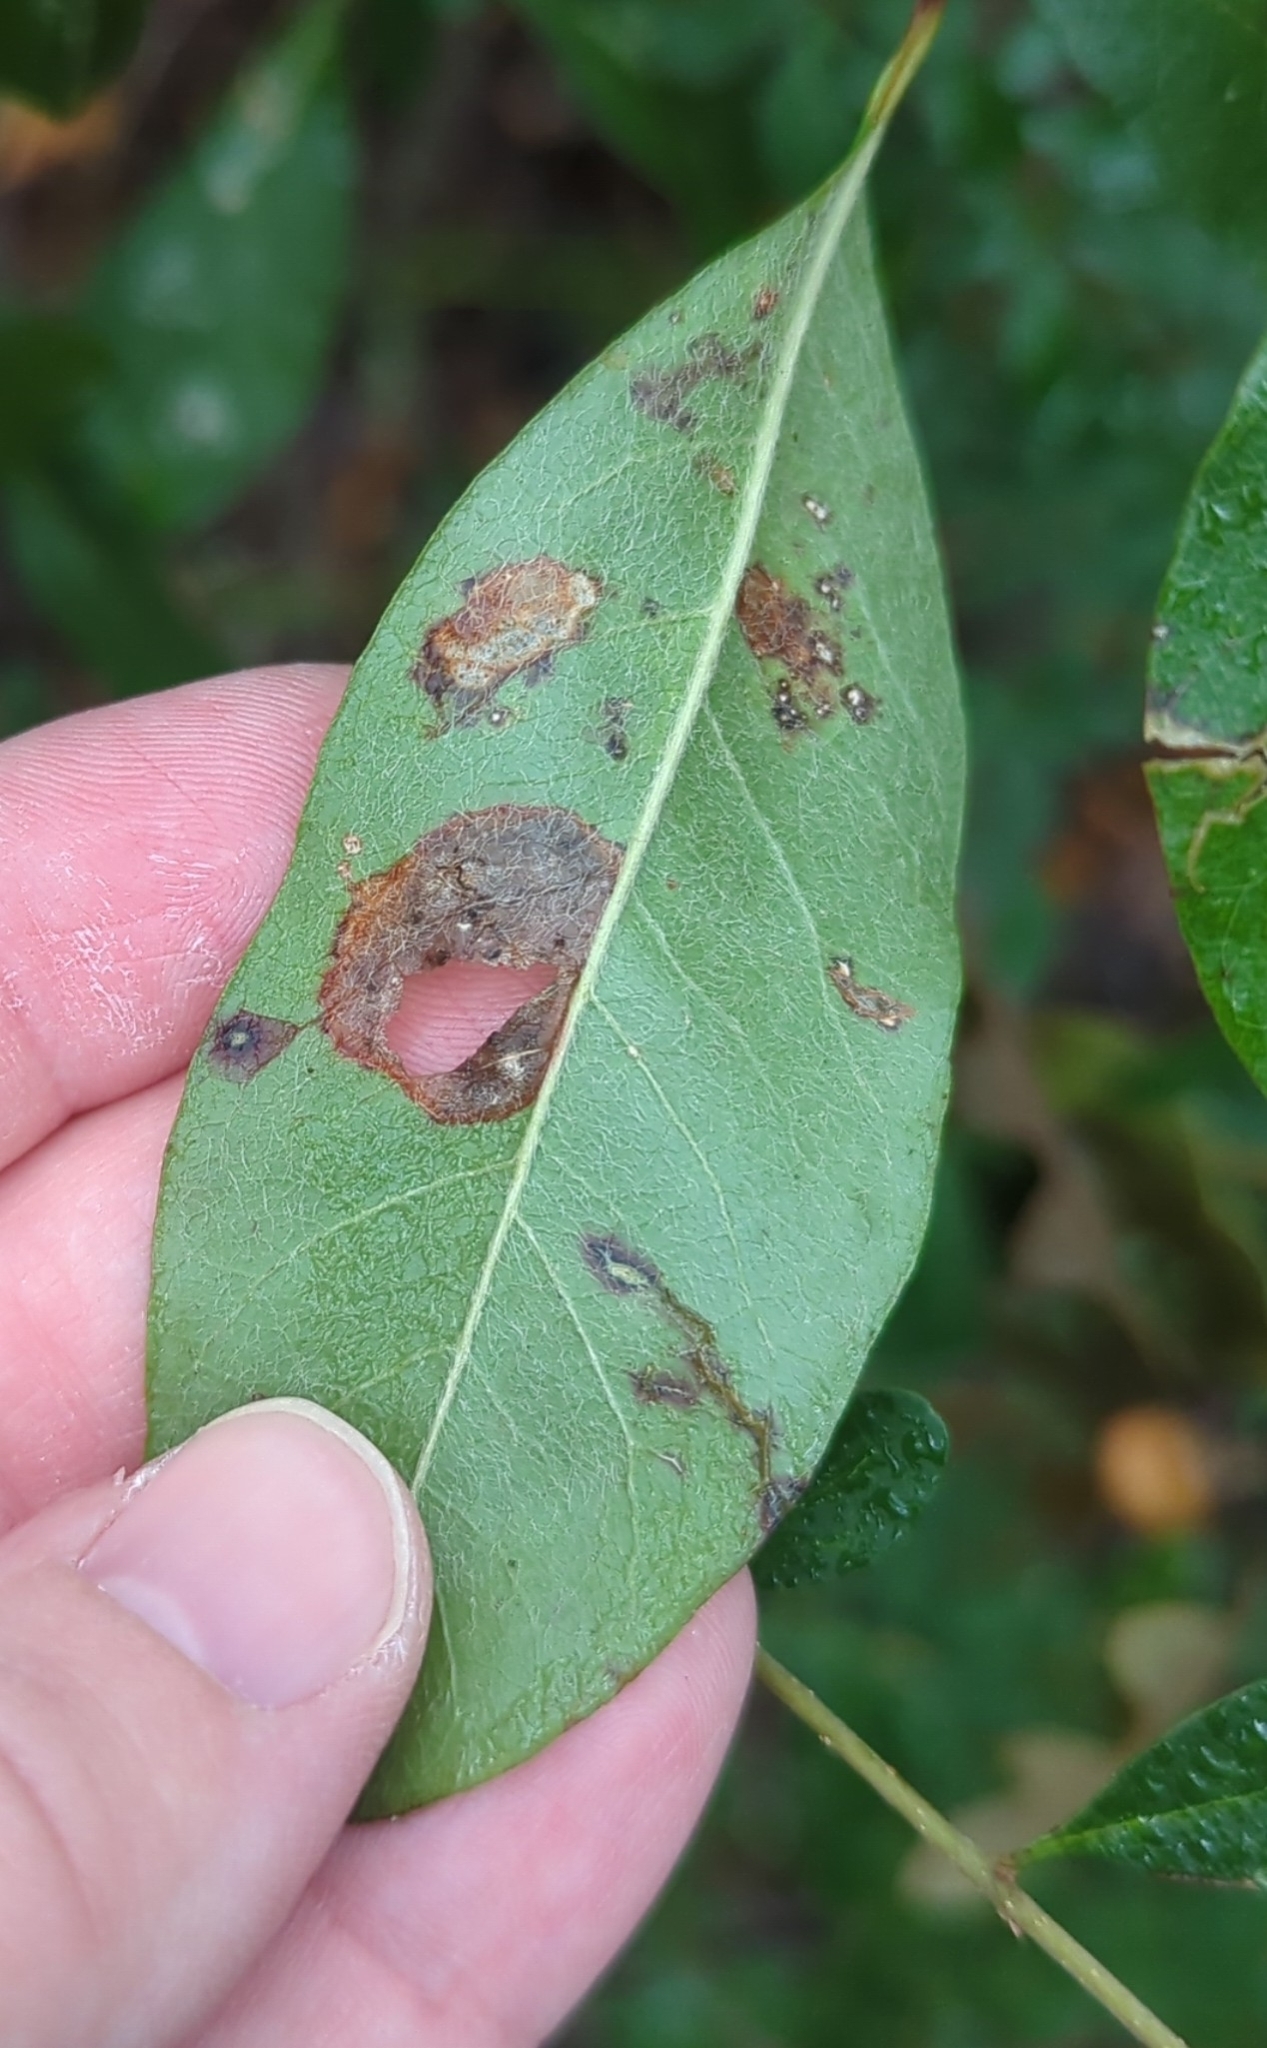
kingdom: Animalia
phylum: Arthropoda
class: Insecta
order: Lepidoptera
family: Gracillariidae
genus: Parectopa
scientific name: Parectopa bumeliella
